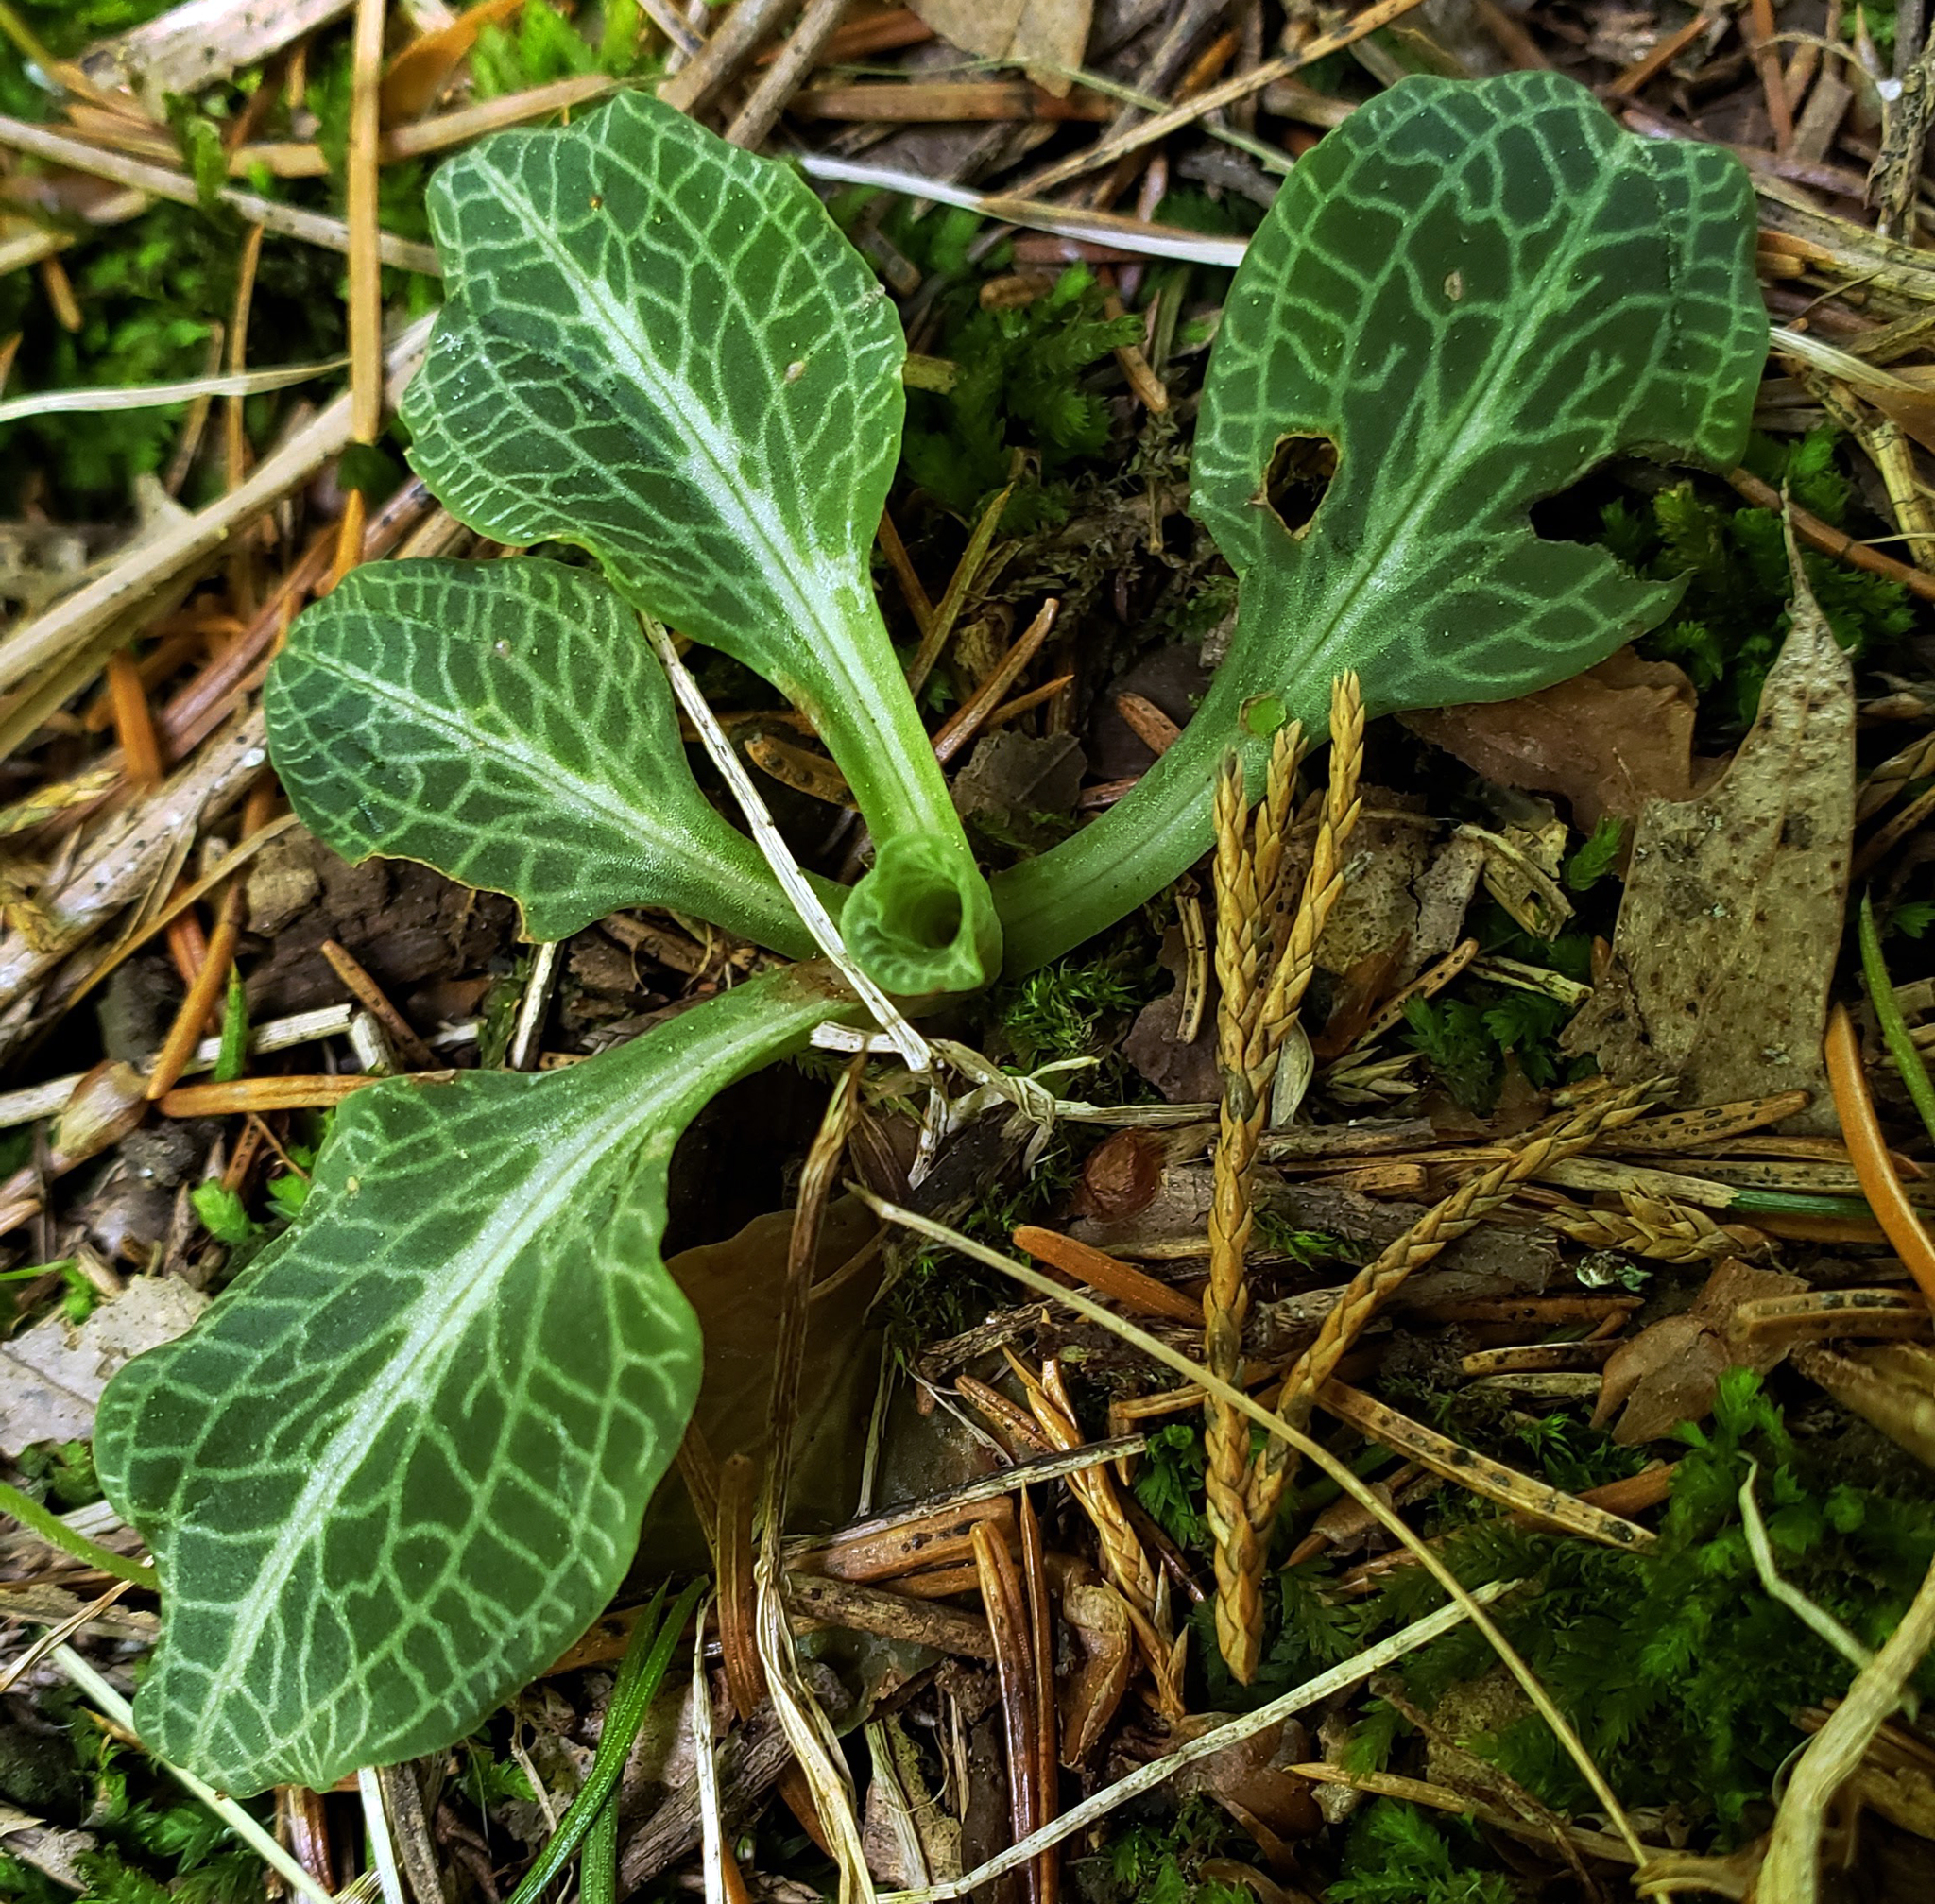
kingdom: Plantae
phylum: Tracheophyta
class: Liliopsida
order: Asparagales
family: Orchidaceae
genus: Goodyera
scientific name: Goodyera pubescens
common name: Downy rattlesnake-plantain
